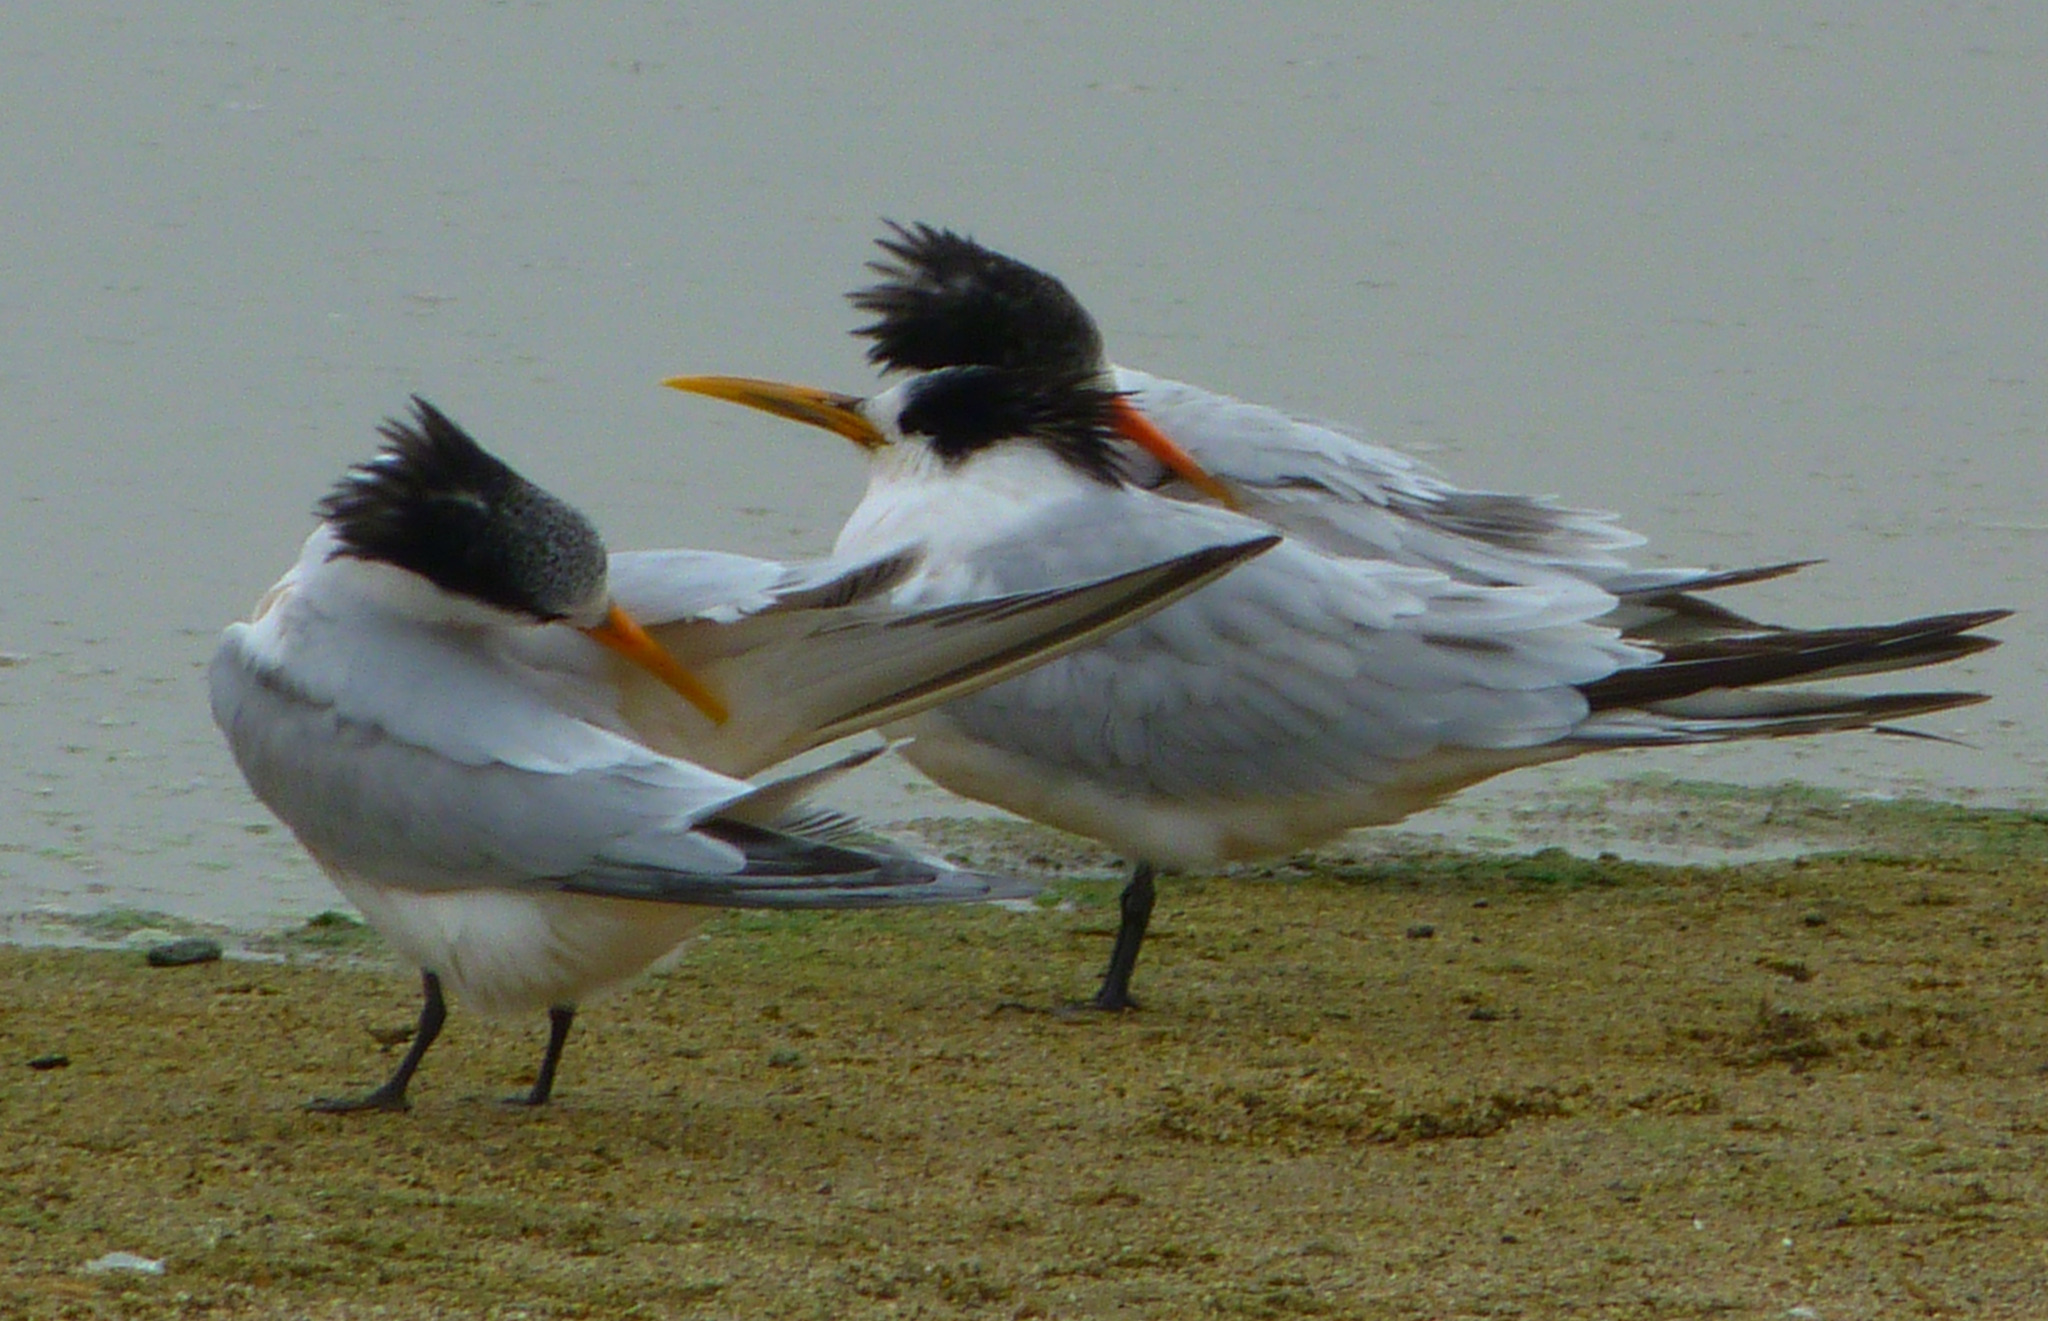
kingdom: Animalia
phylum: Chordata
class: Aves
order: Charadriiformes
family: Laridae
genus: Thalasseus
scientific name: Thalasseus elegans
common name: Elegant tern
